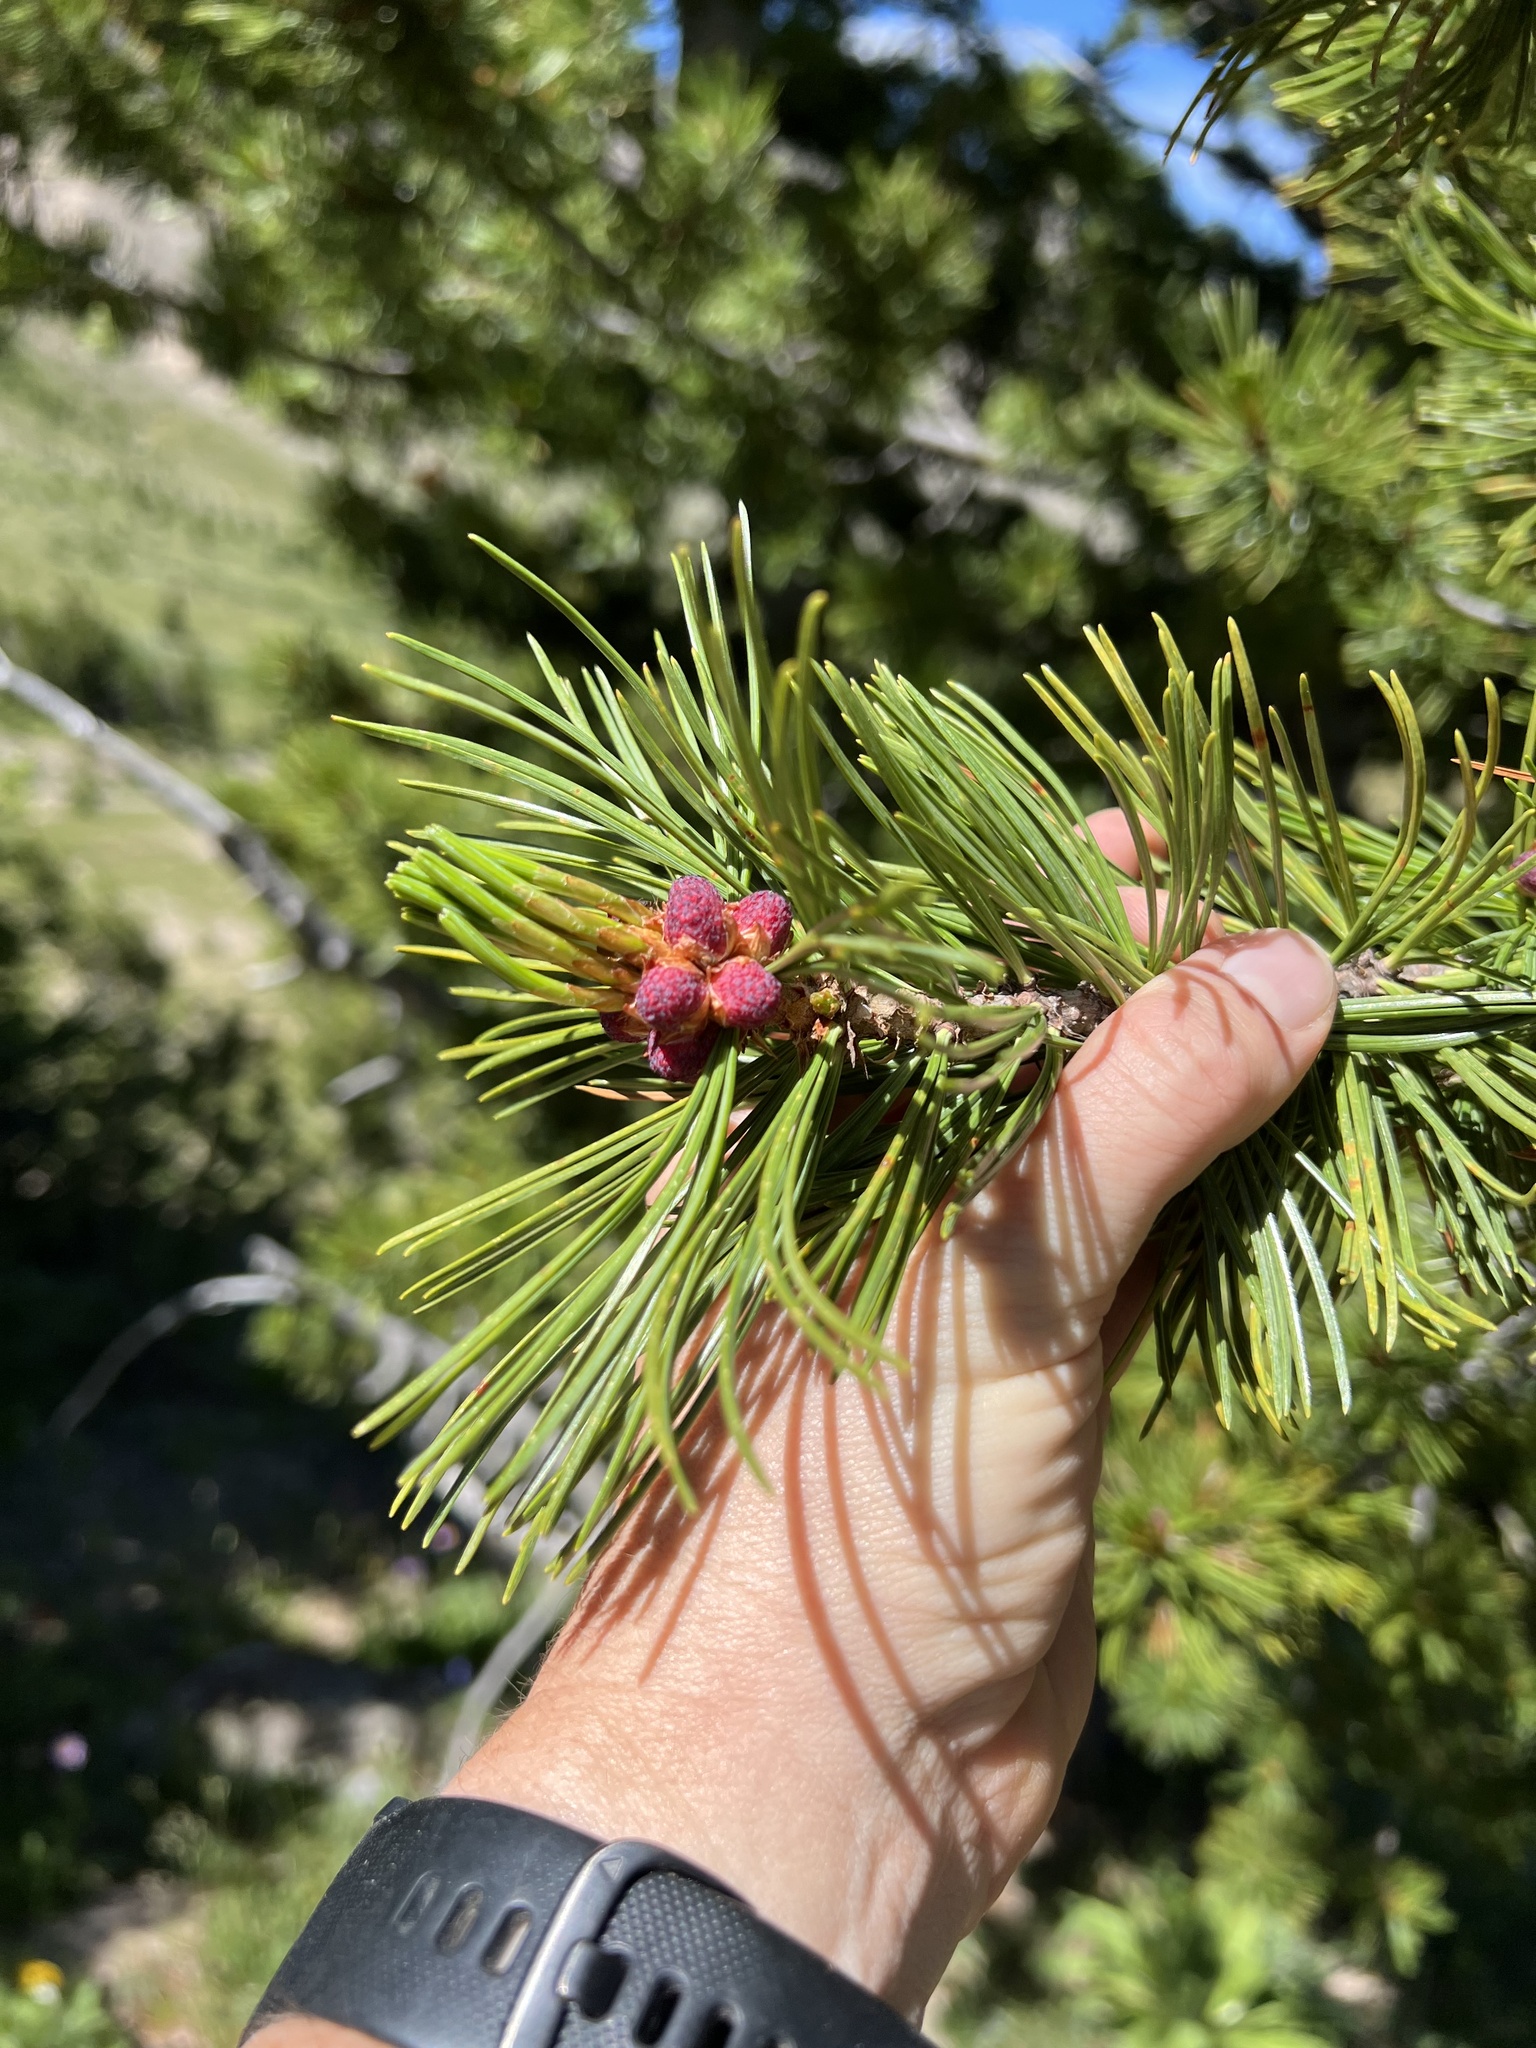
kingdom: Plantae
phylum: Tracheophyta
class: Pinopsida
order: Pinales
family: Pinaceae
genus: Pinus
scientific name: Pinus albicaulis
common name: Whitebark pine
